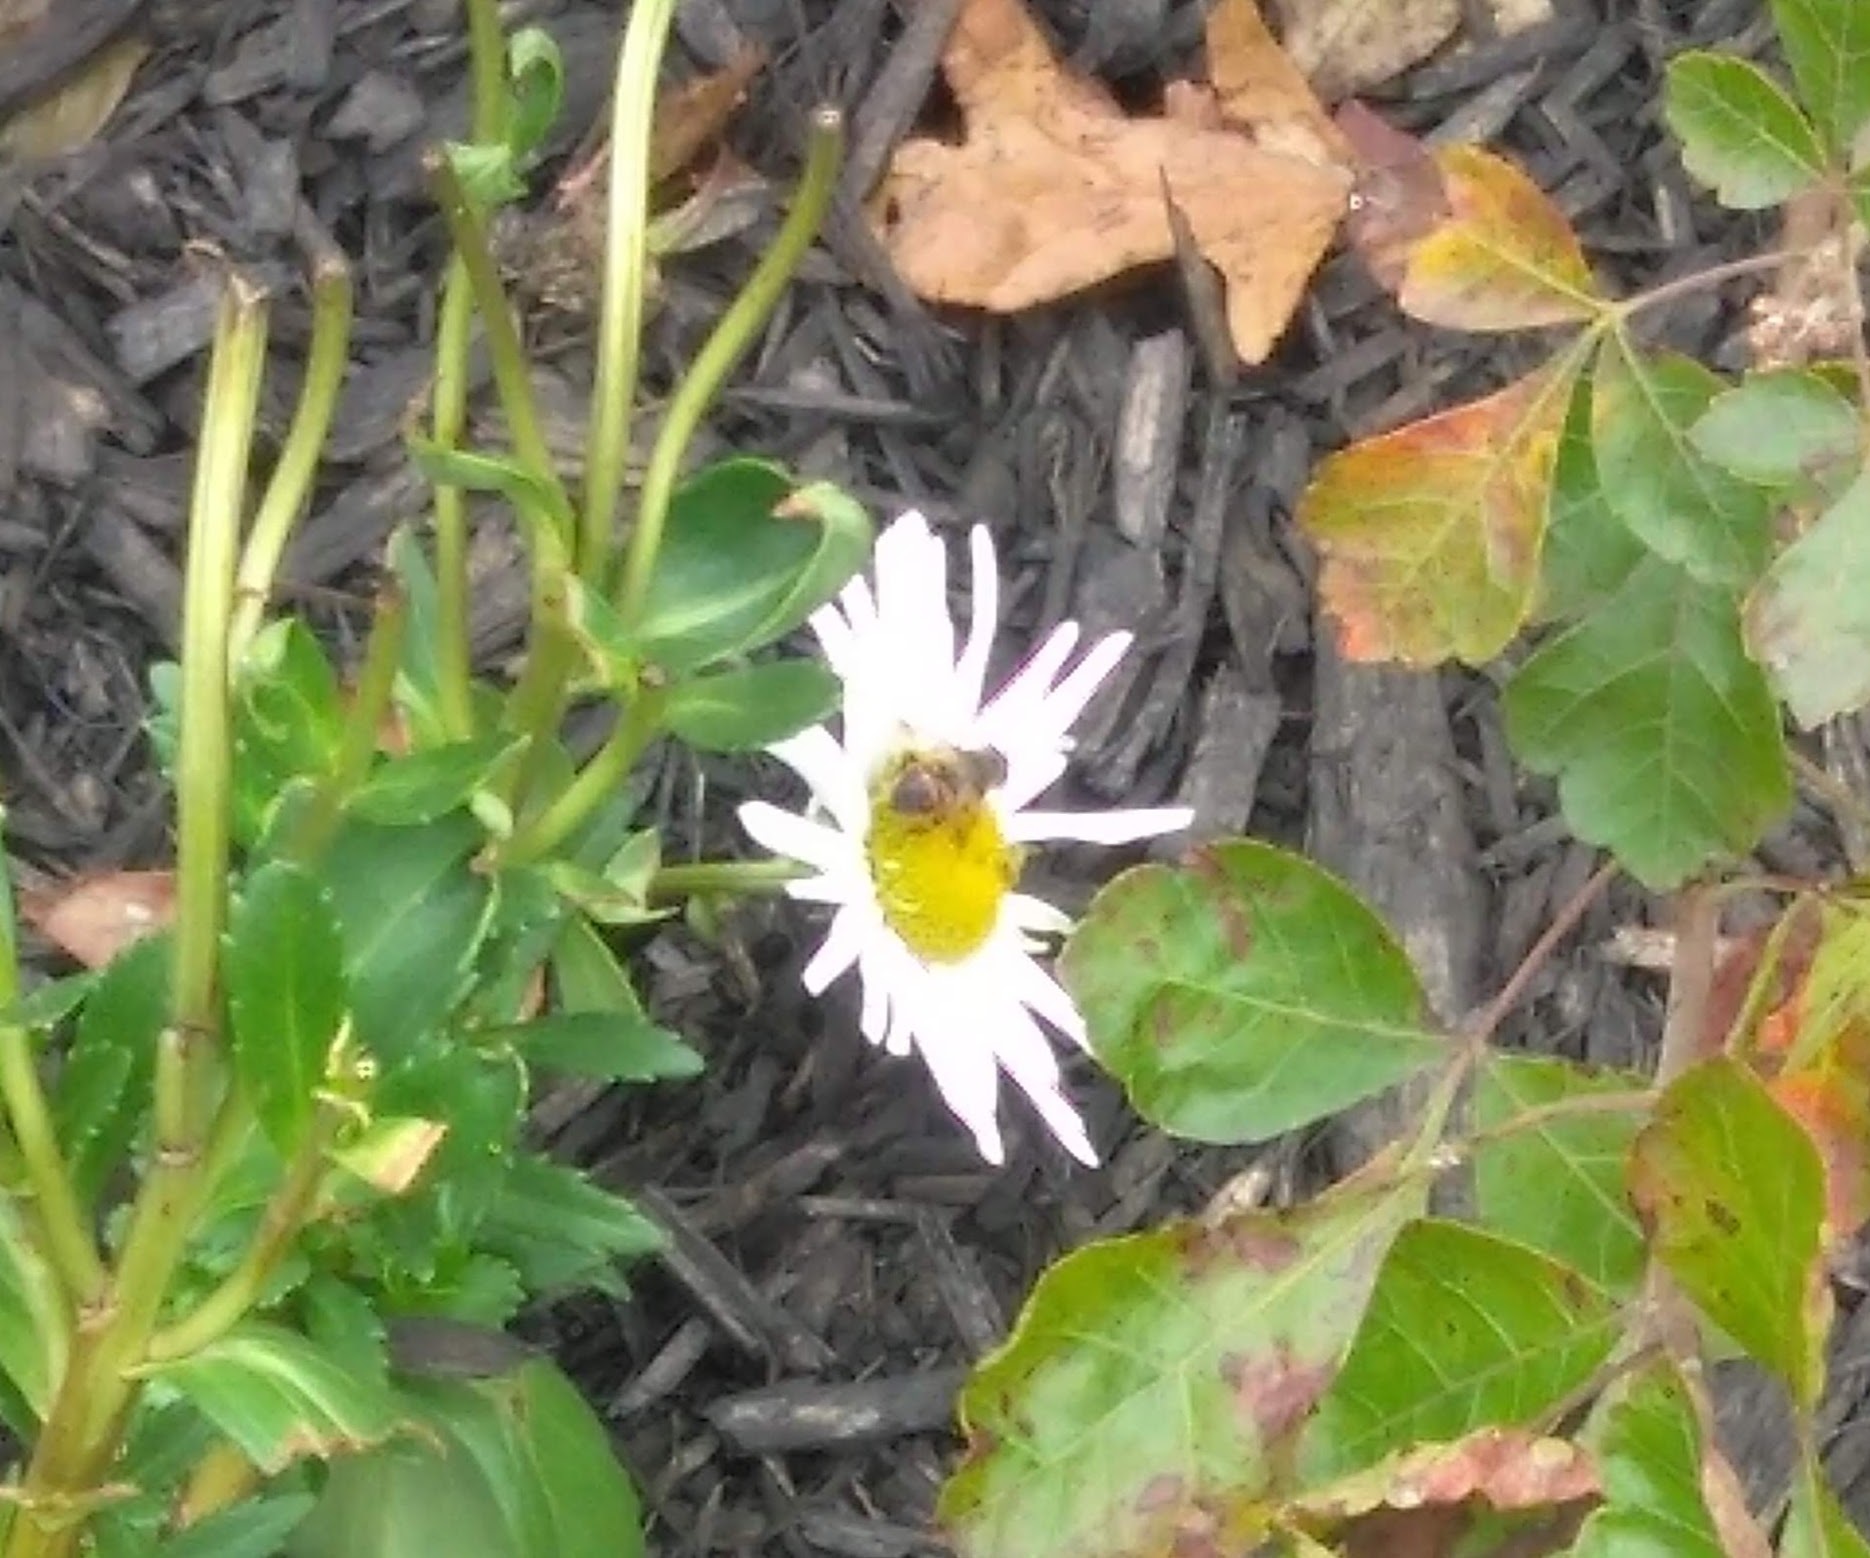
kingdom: Animalia
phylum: Arthropoda
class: Insecta
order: Diptera
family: Syrphidae
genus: Eristalis
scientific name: Eristalis tenax
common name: Drone fly
